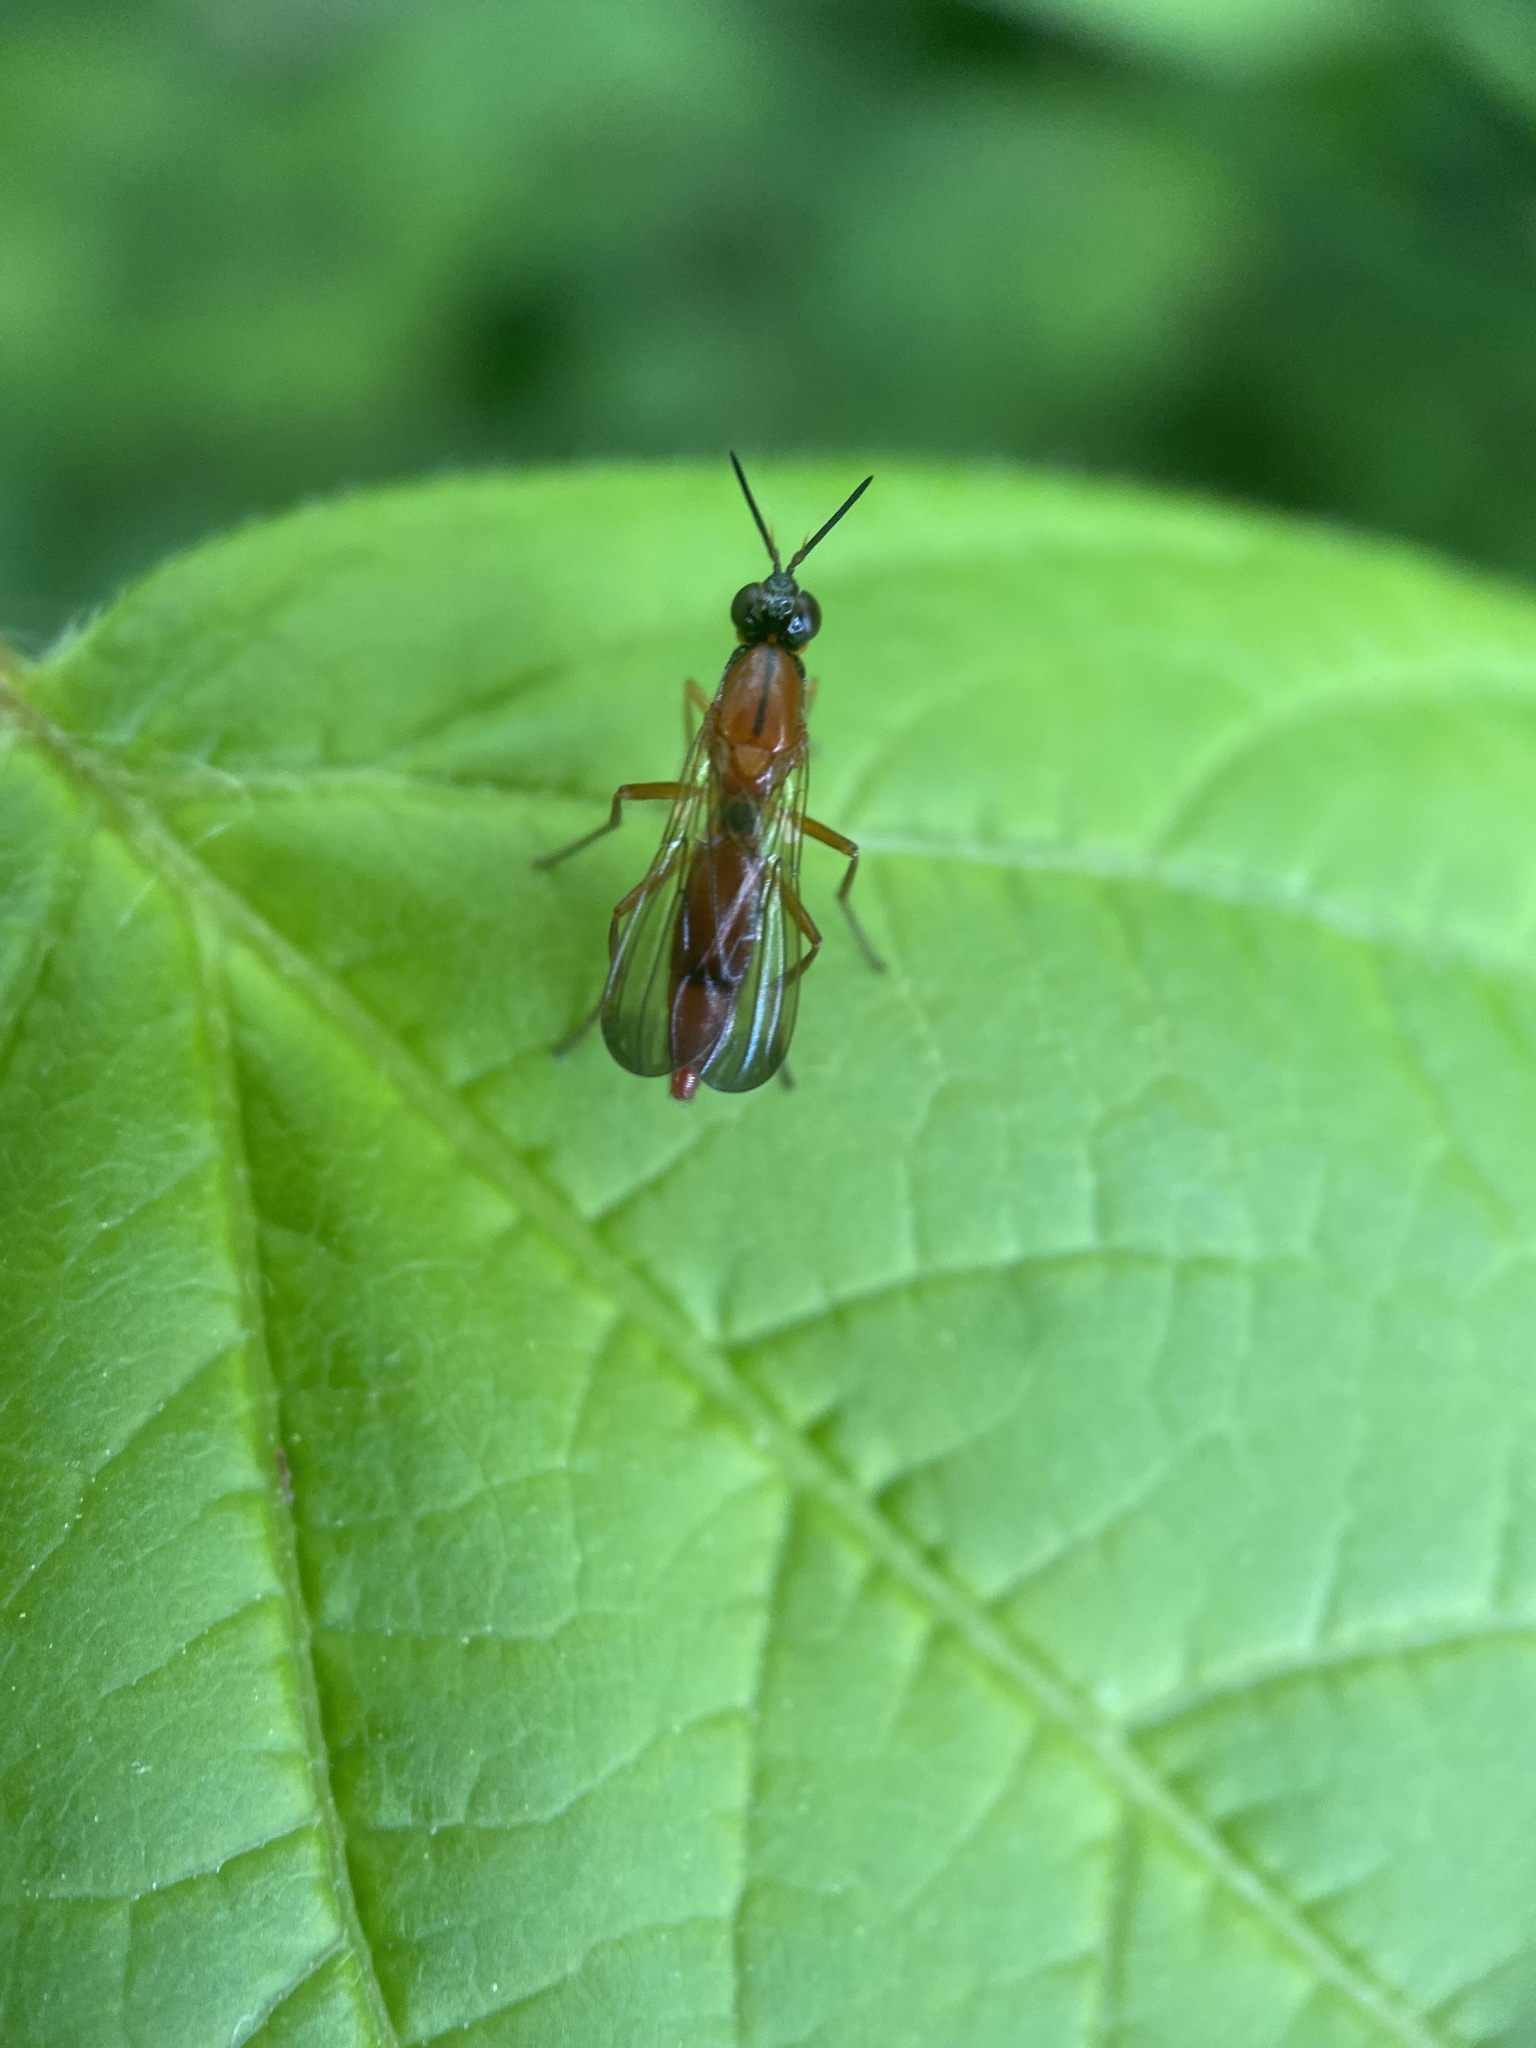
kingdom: Animalia
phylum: Arthropoda
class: Insecta
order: Diptera
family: Psilidae
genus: Loxocera
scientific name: Loxocera cylindrica
